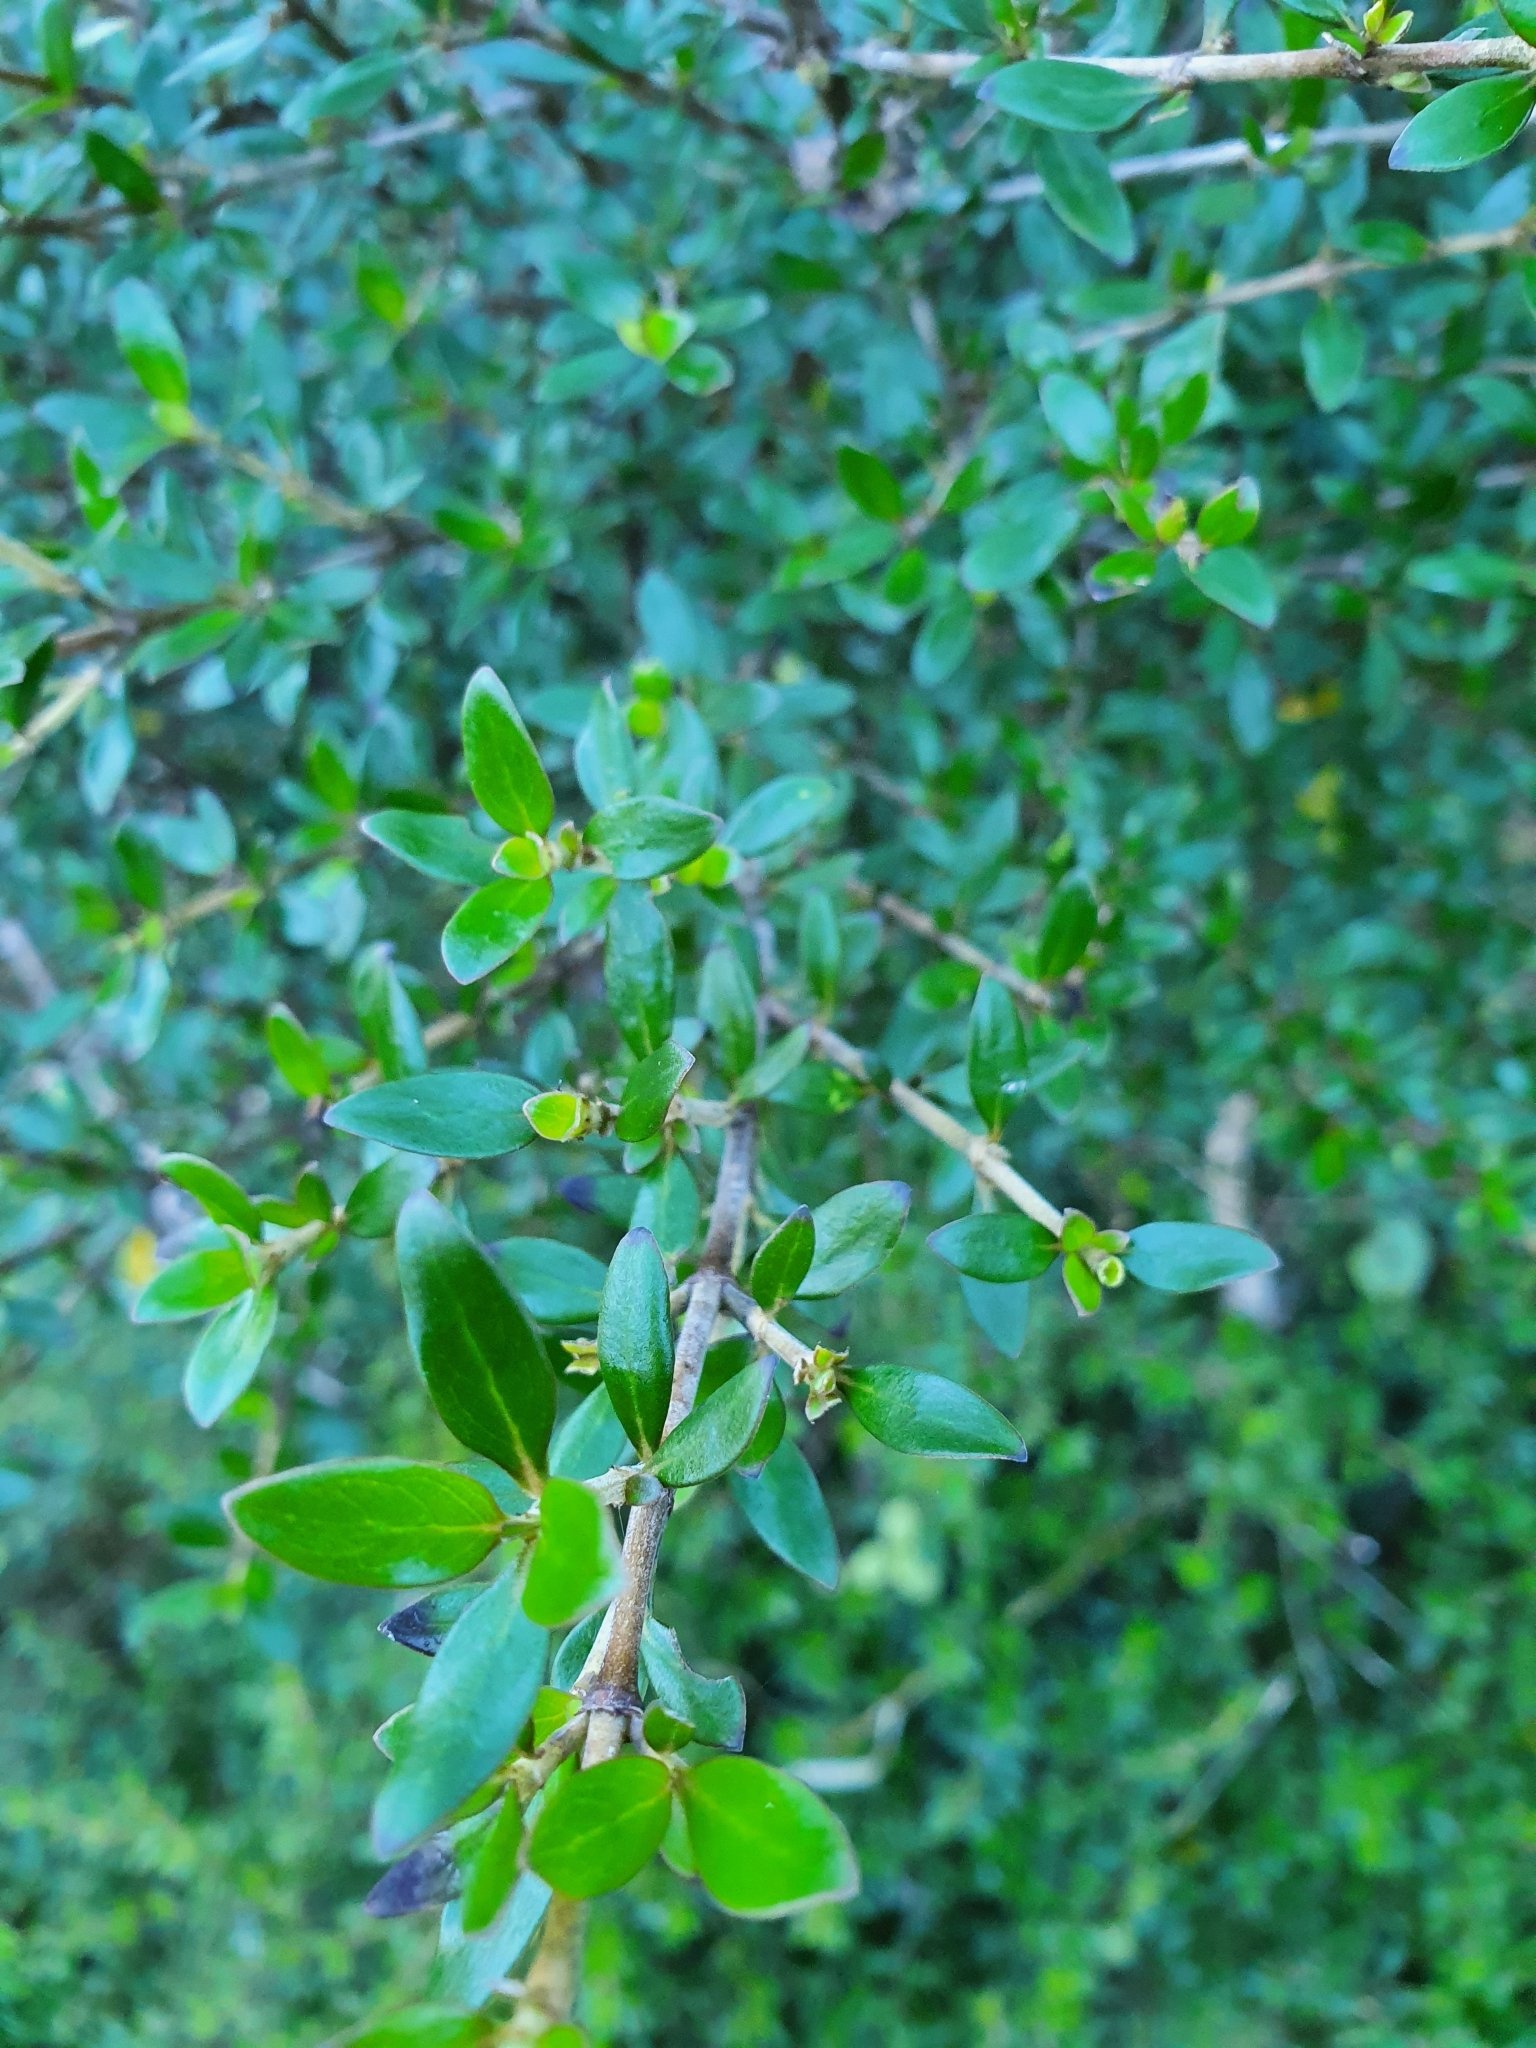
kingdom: Plantae
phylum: Tracheophyta
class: Magnoliopsida
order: Gentianales
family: Rubiaceae
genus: Coprosma
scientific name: Coprosma cunninghamii
